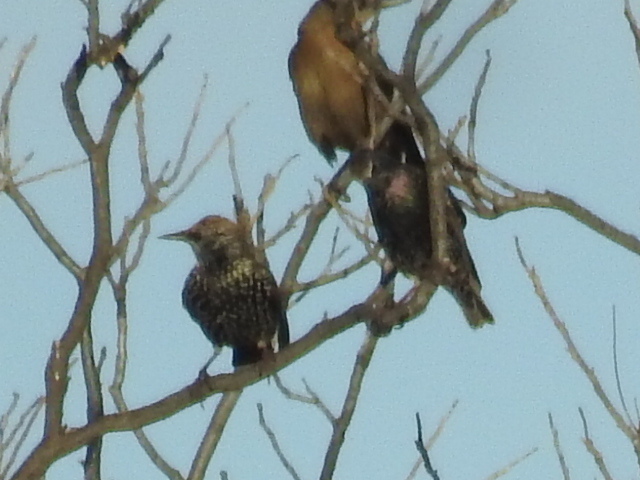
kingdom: Animalia
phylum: Chordata
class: Aves
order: Passeriformes
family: Sturnidae
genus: Sturnus
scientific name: Sturnus vulgaris
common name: Common starling
